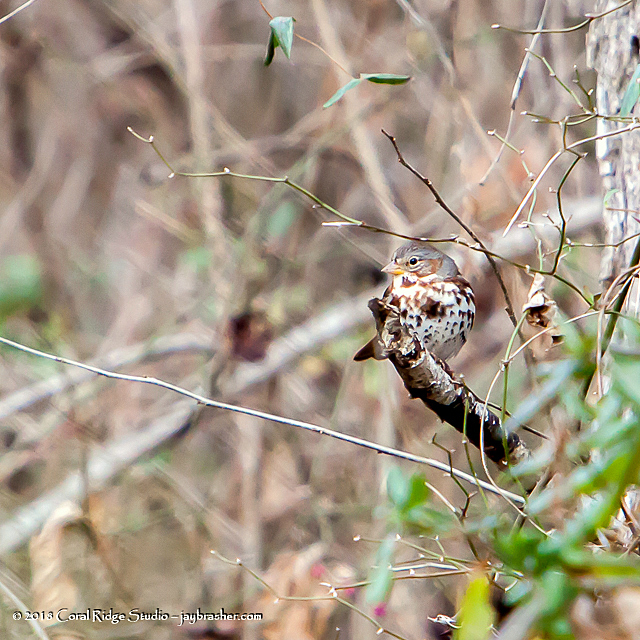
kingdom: Animalia
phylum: Chordata
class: Aves
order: Passeriformes
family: Passerellidae
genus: Passerella
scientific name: Passerella iliaca
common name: Fox sparrow
